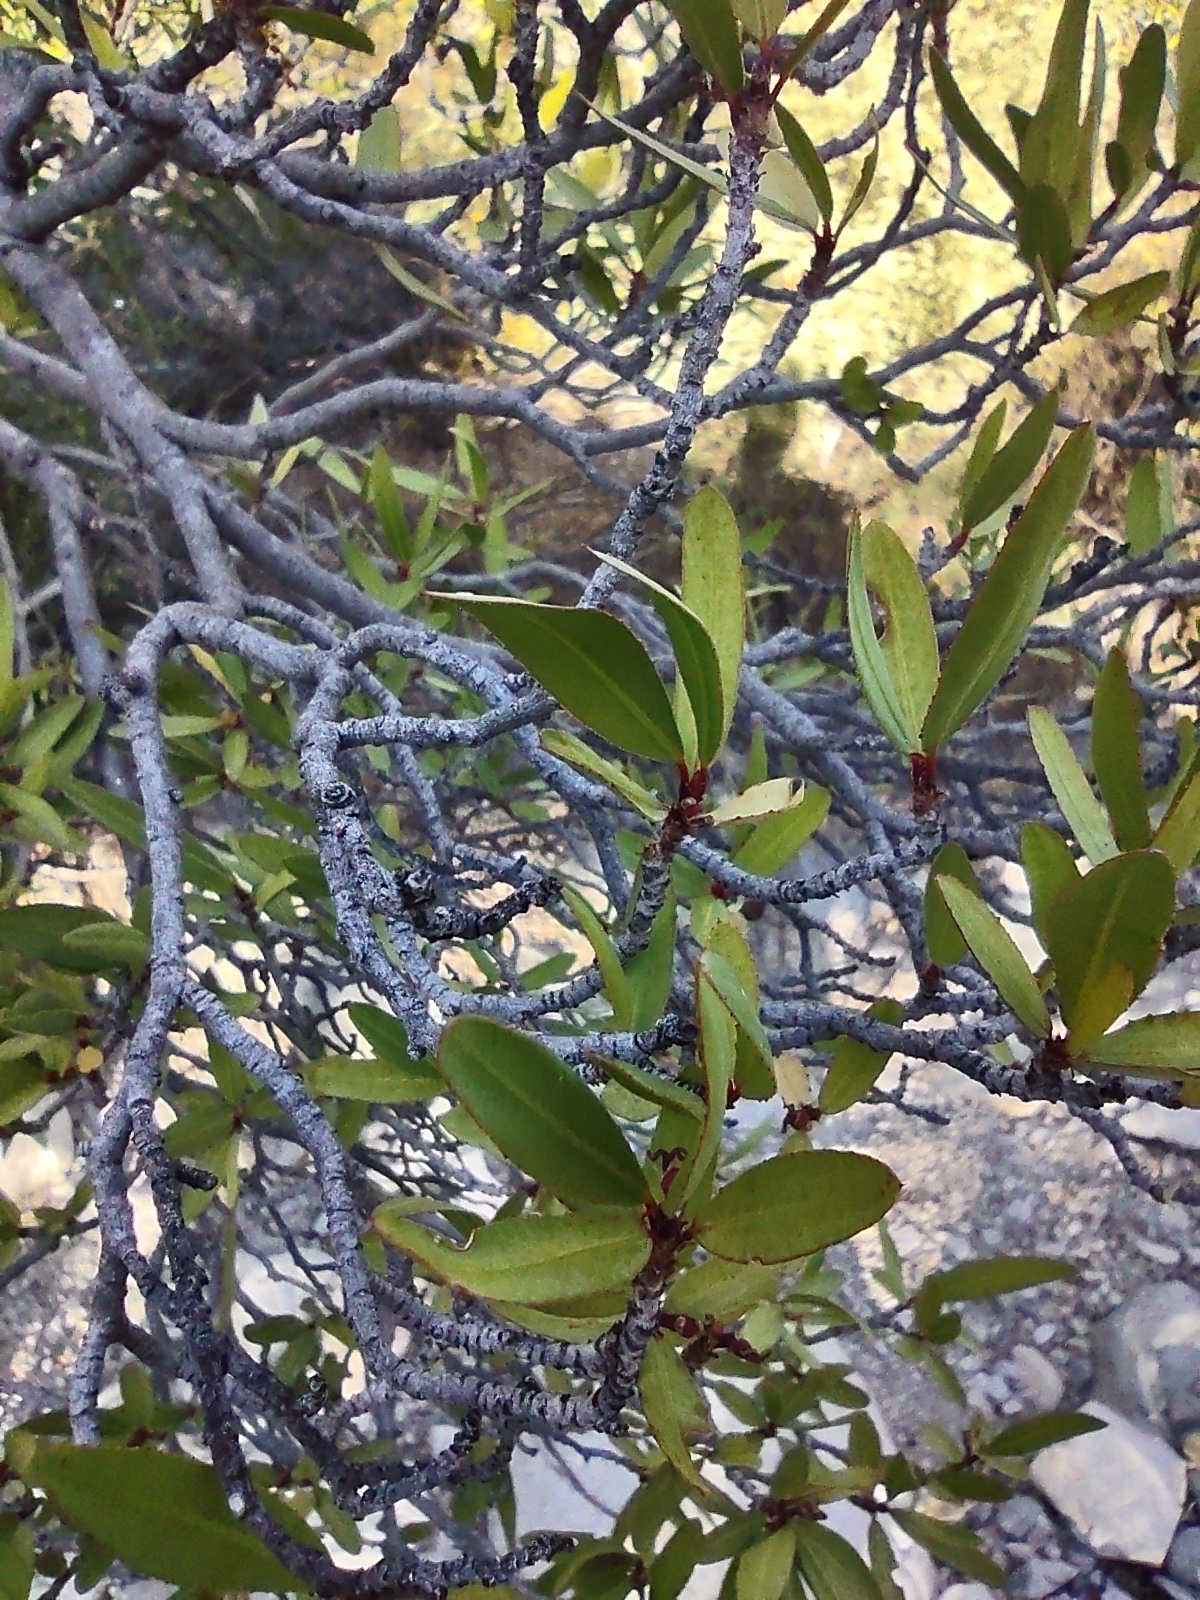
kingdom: Plantae
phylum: Tracheophyta
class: Magnoliopsida
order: Malpighiales
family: Euphorbiaceae
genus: Pleradenophora
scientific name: Pleradenophora bilocularis
